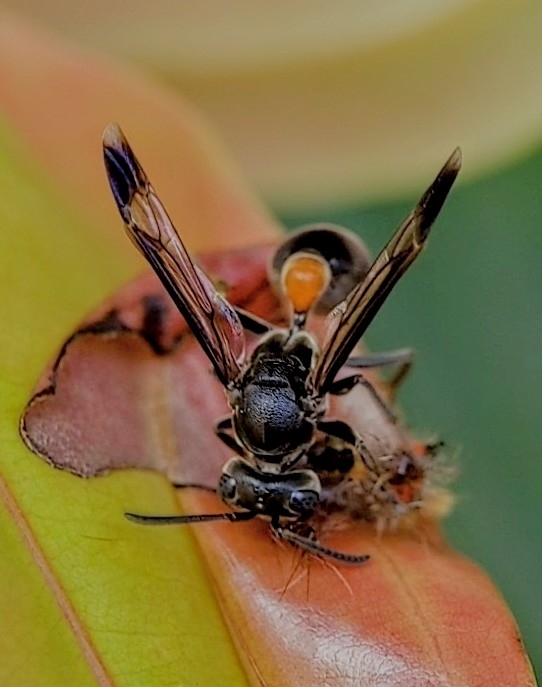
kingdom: Animalia
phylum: Arthropoda
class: Insecta
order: Hymenoptera
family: Vespidae
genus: Ropalidia
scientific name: Ropalidia sumatrae
